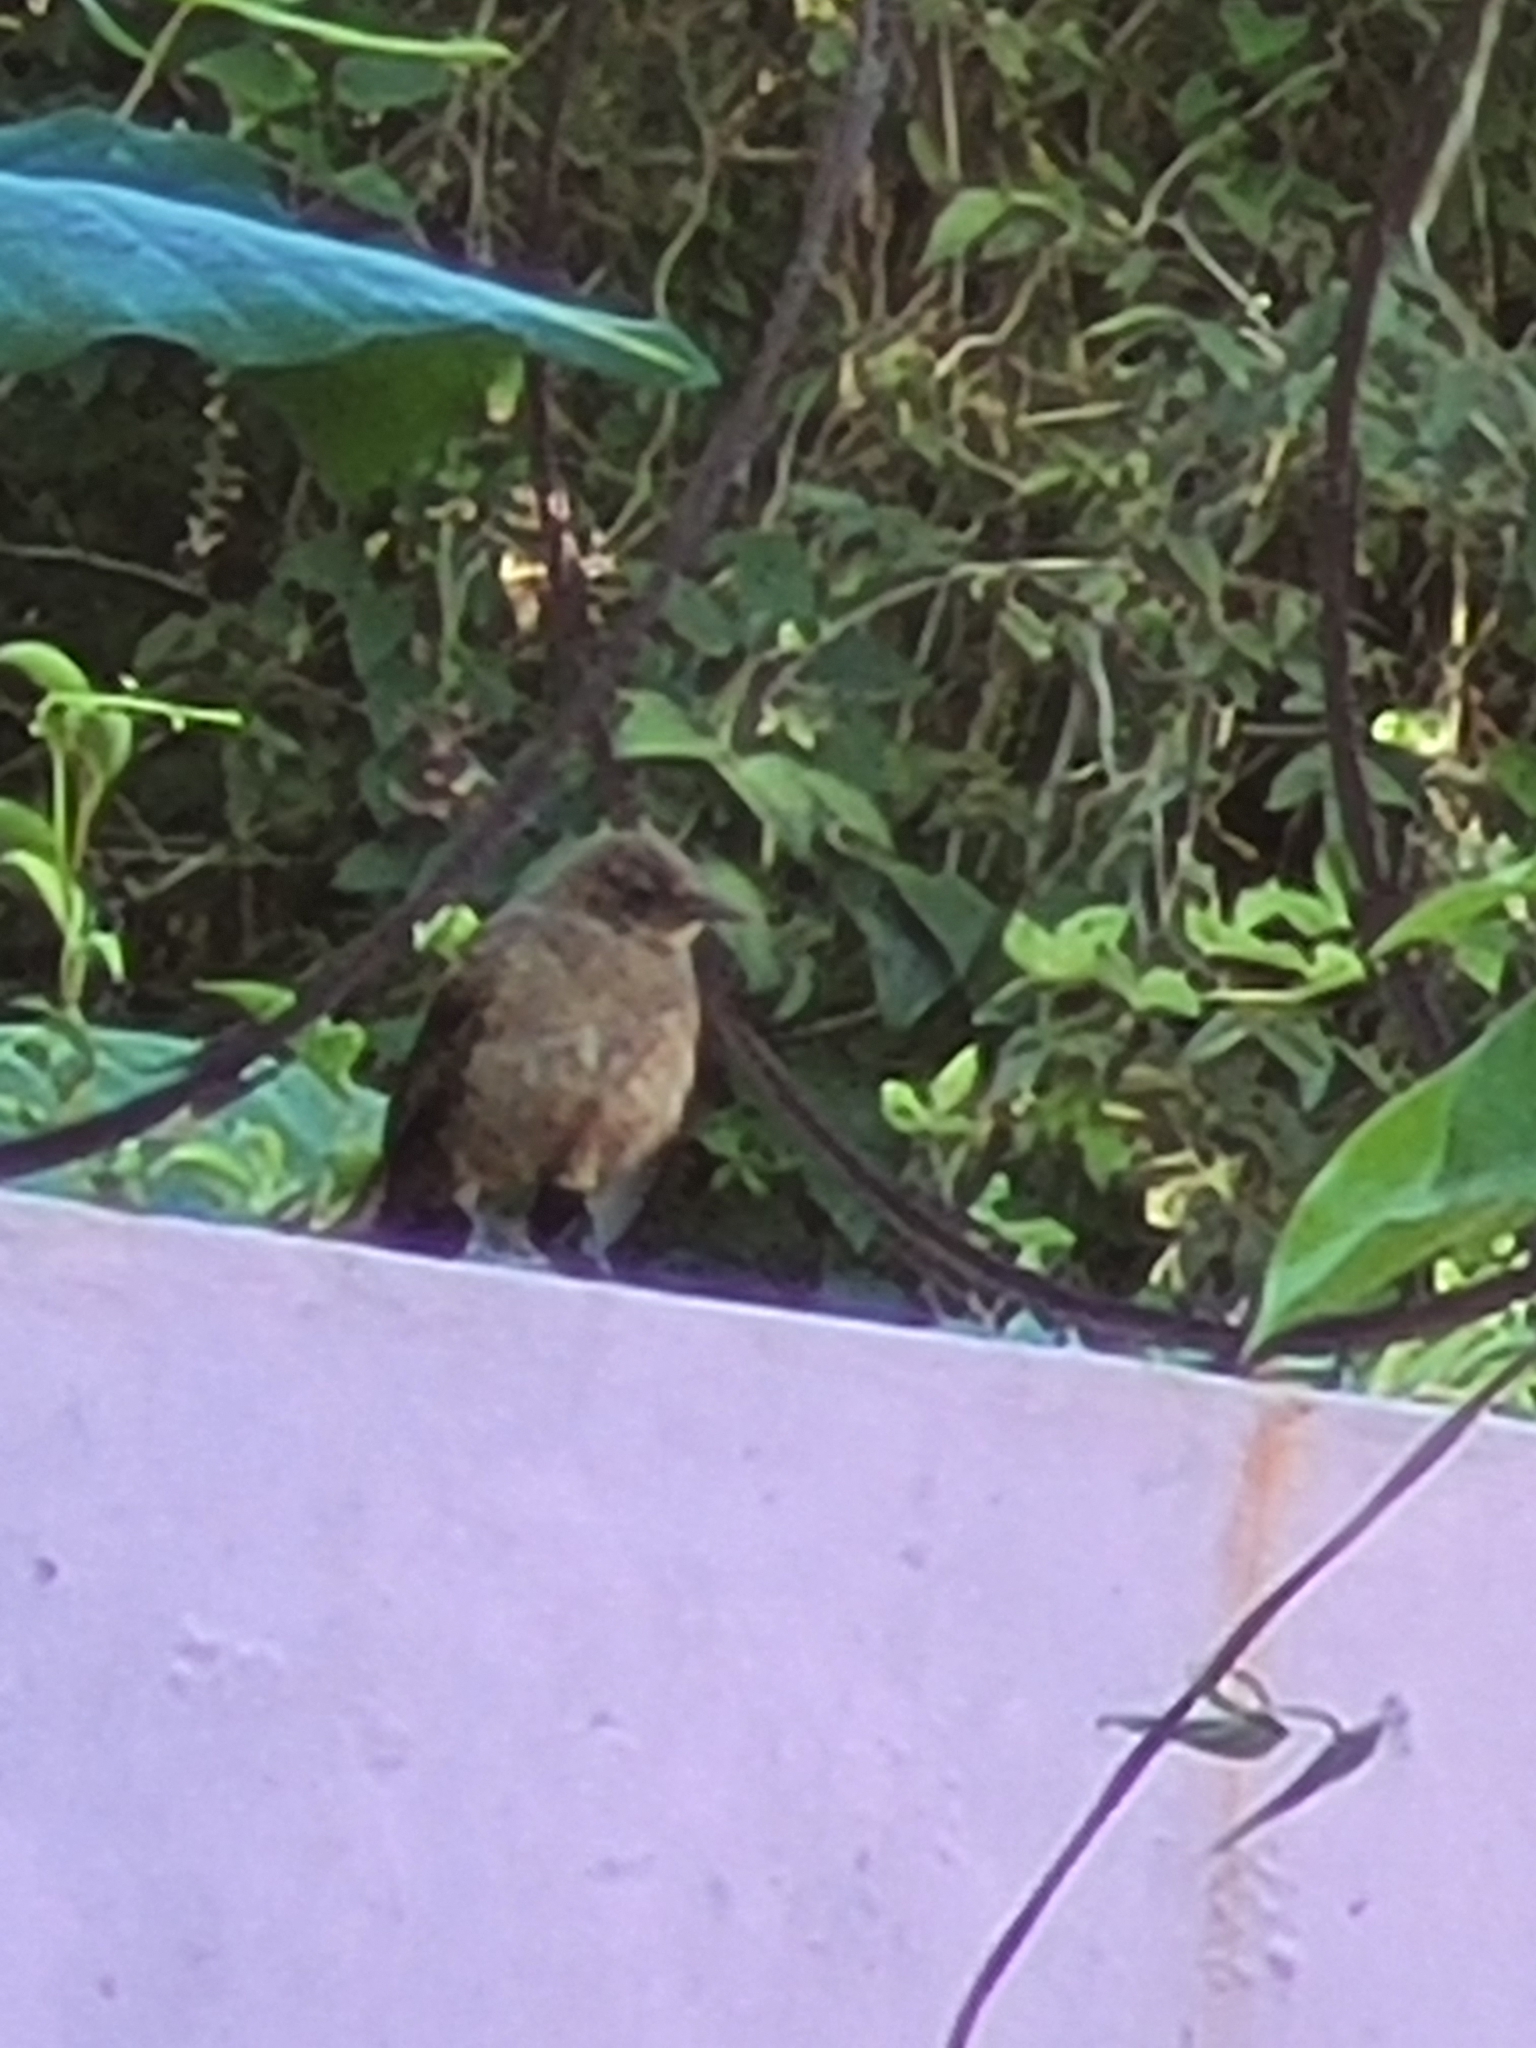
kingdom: Animalia
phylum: Chordata
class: Aves
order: Passeriformes
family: Icteridae
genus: Quiscalus
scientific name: Quiscalus mexicanus
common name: Great-tailed grackle
